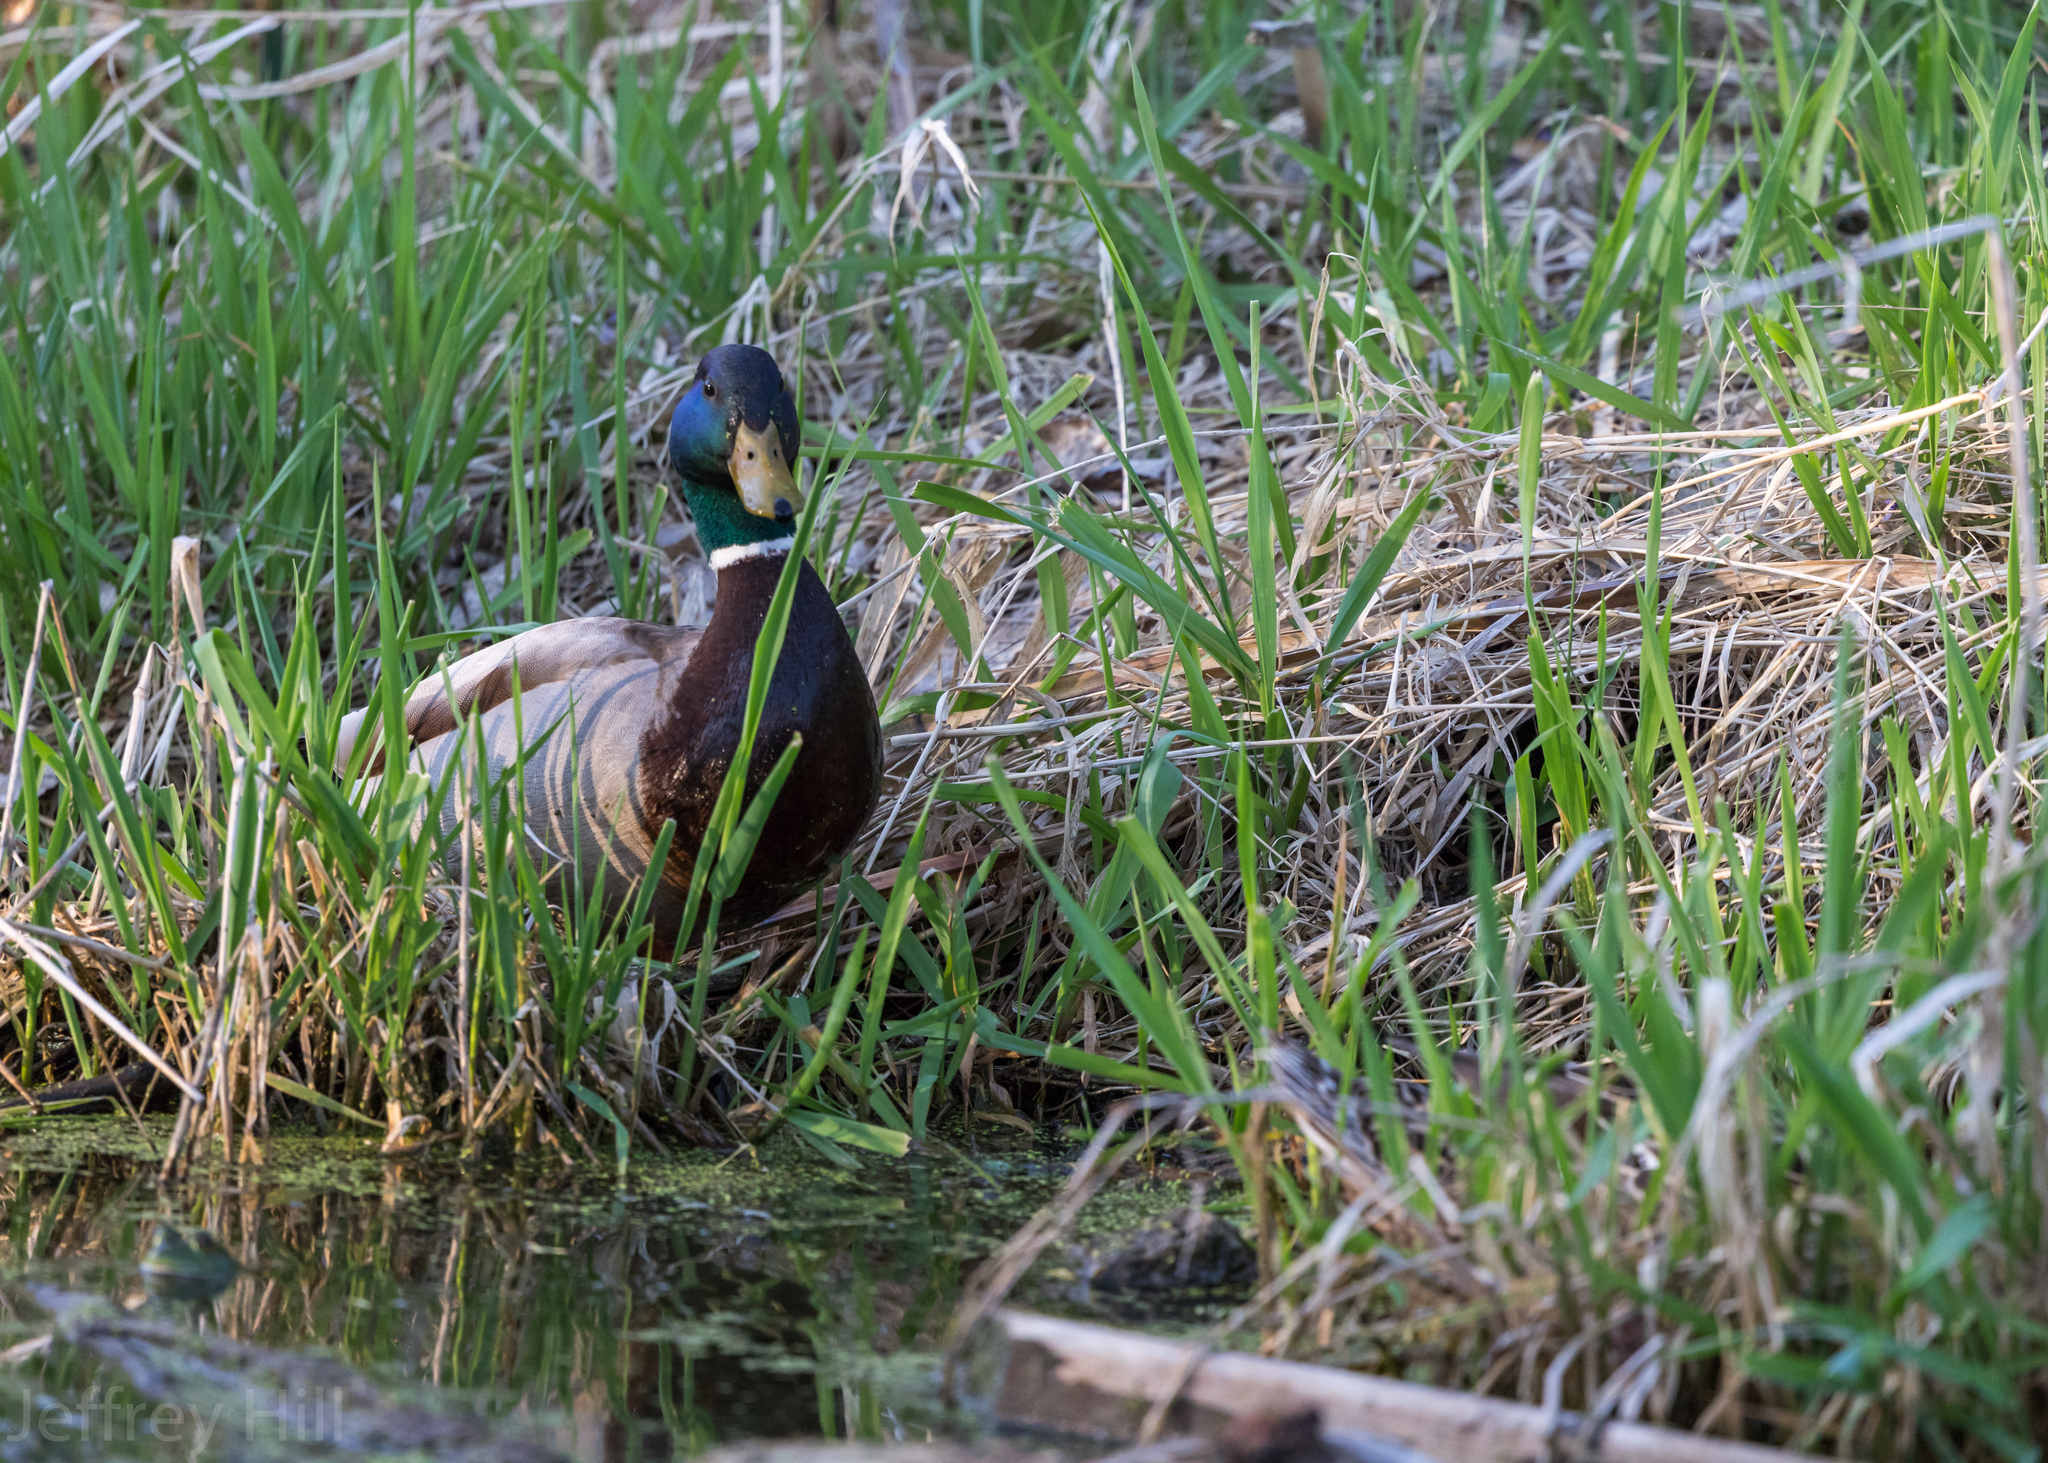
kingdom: Animalia
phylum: Chordata
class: Aves
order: Anseriformes
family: Anatidae
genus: Anas
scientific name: Anas platyrhynchos
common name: Mallard
